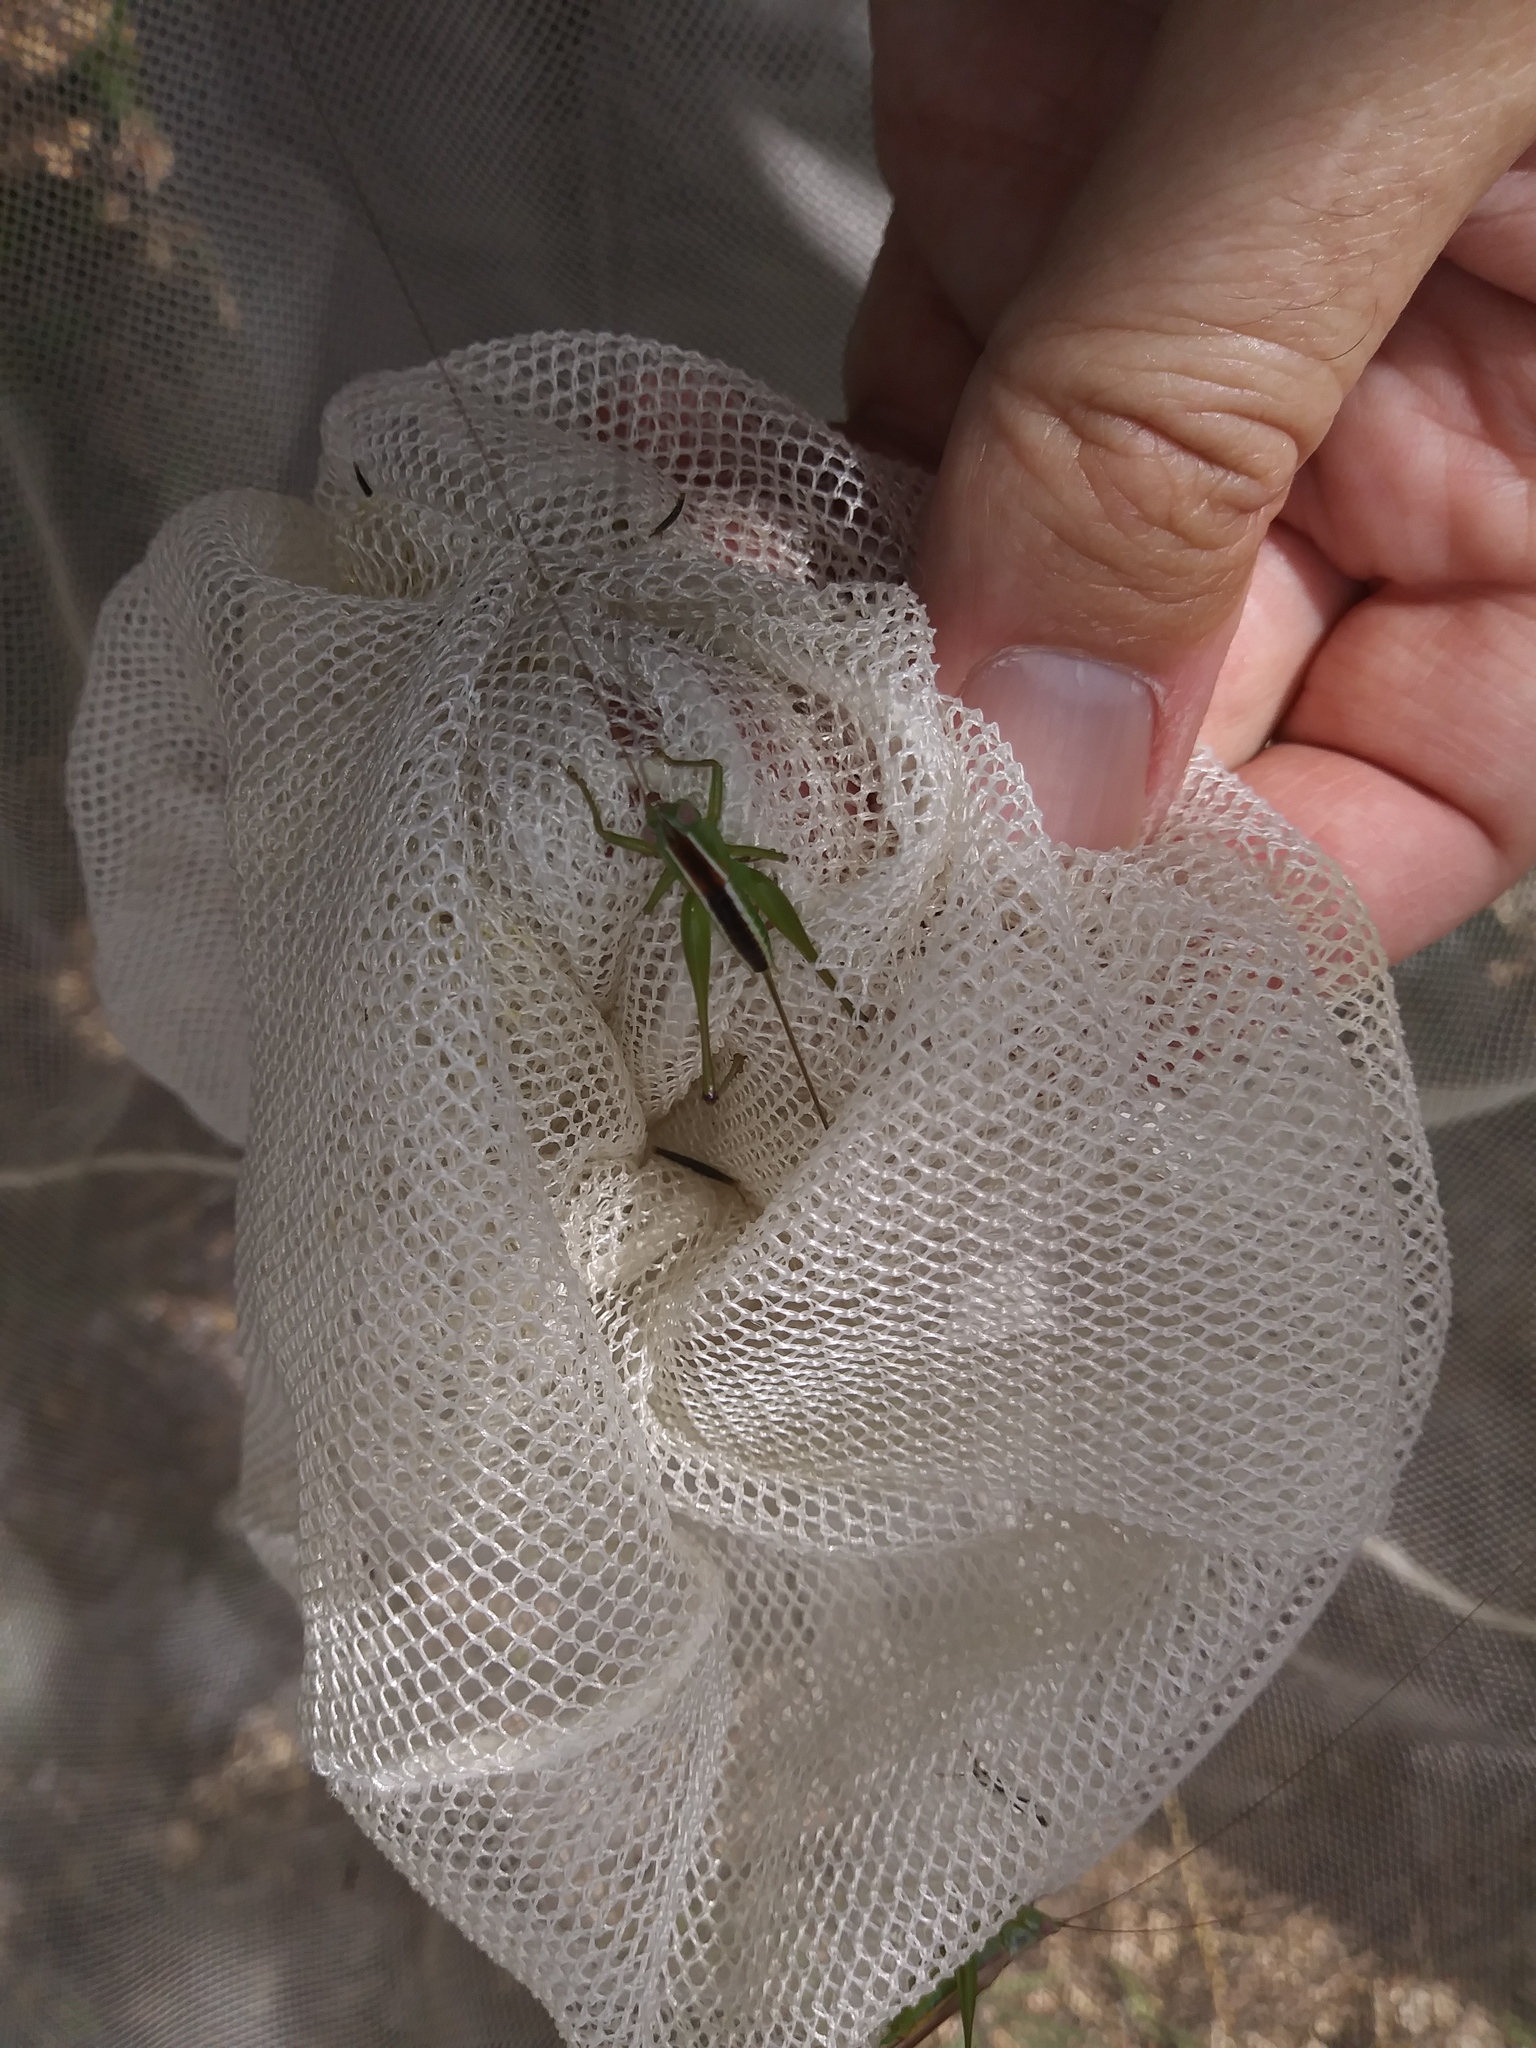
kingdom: Animalia
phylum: Arthropoda
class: Insecta
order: Orthoptera
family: Tettigoniidae
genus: Odontoxiphidium
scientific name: Odontoxiphidium apterum
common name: Wingless meadow katydid
